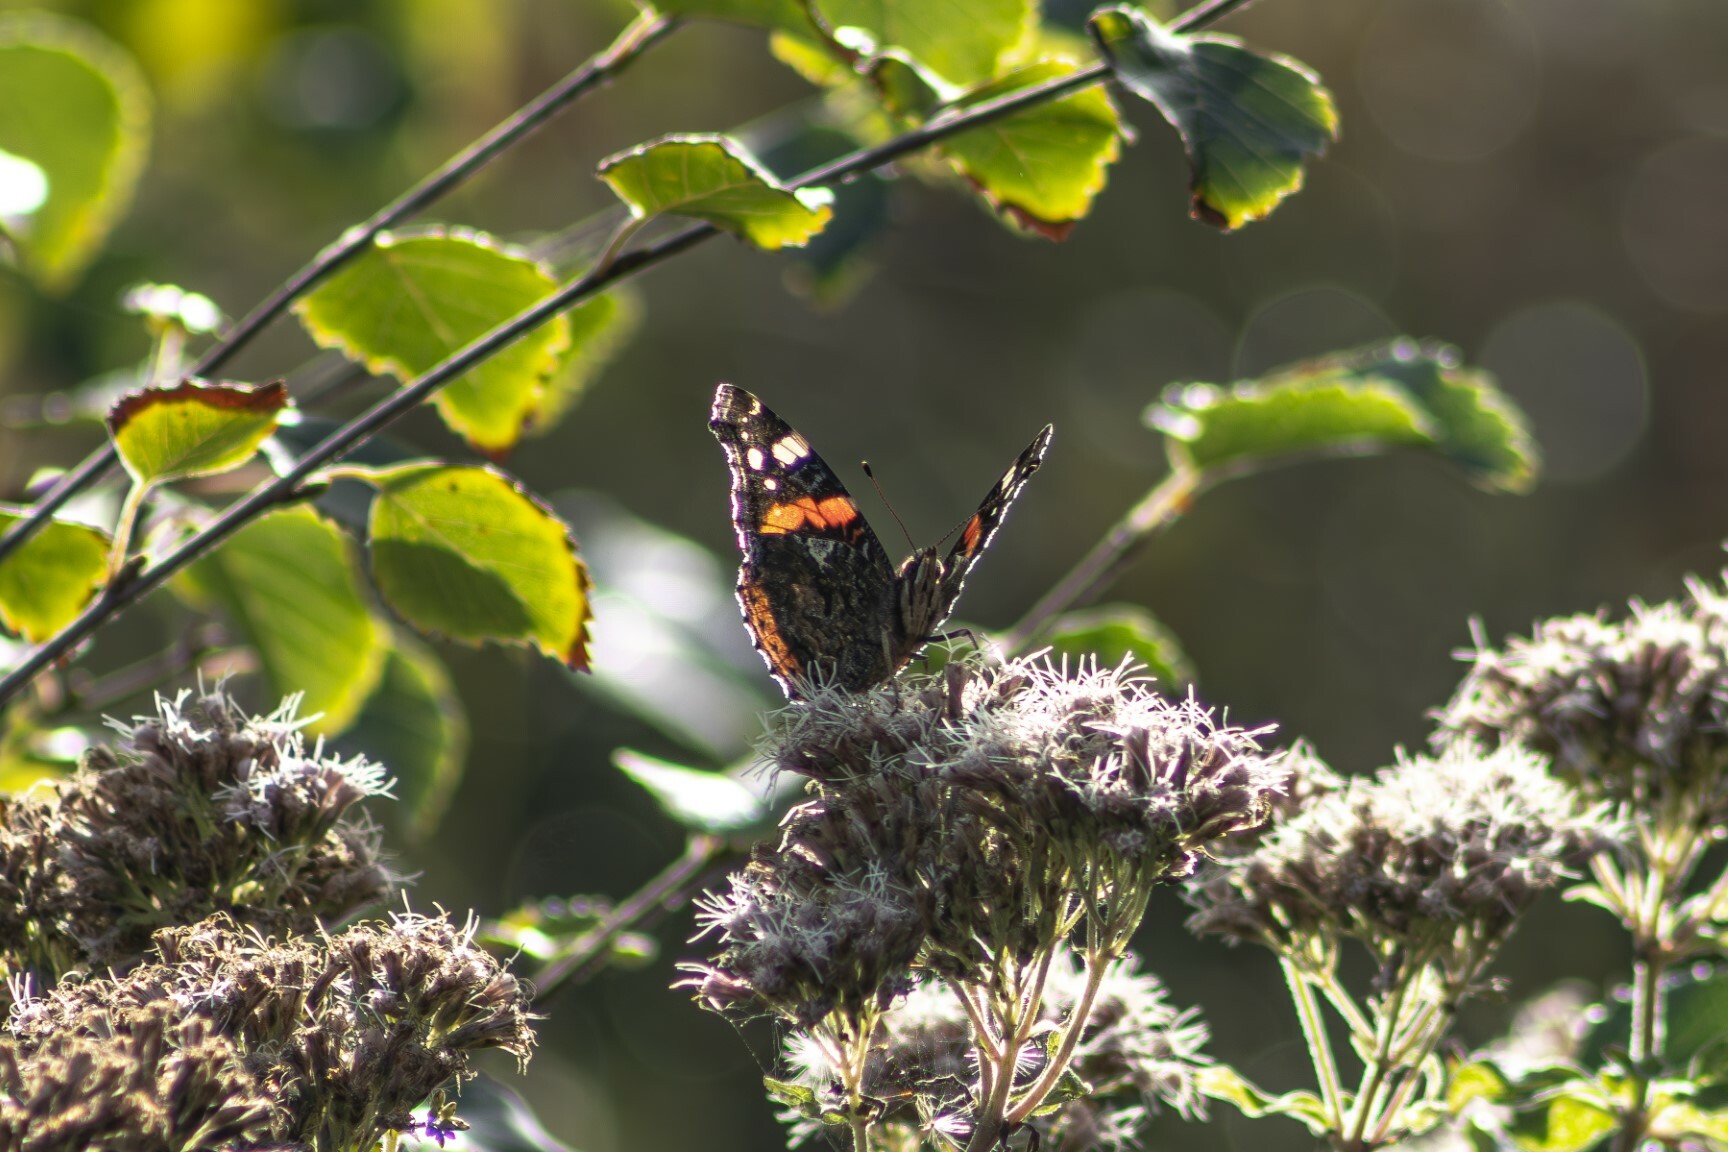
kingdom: Animalia
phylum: Arthropoda
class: Insecta
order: Lepidoptera
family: Nymphalidae
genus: Vanessa
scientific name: Vanessa atalanta
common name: Red admiral
